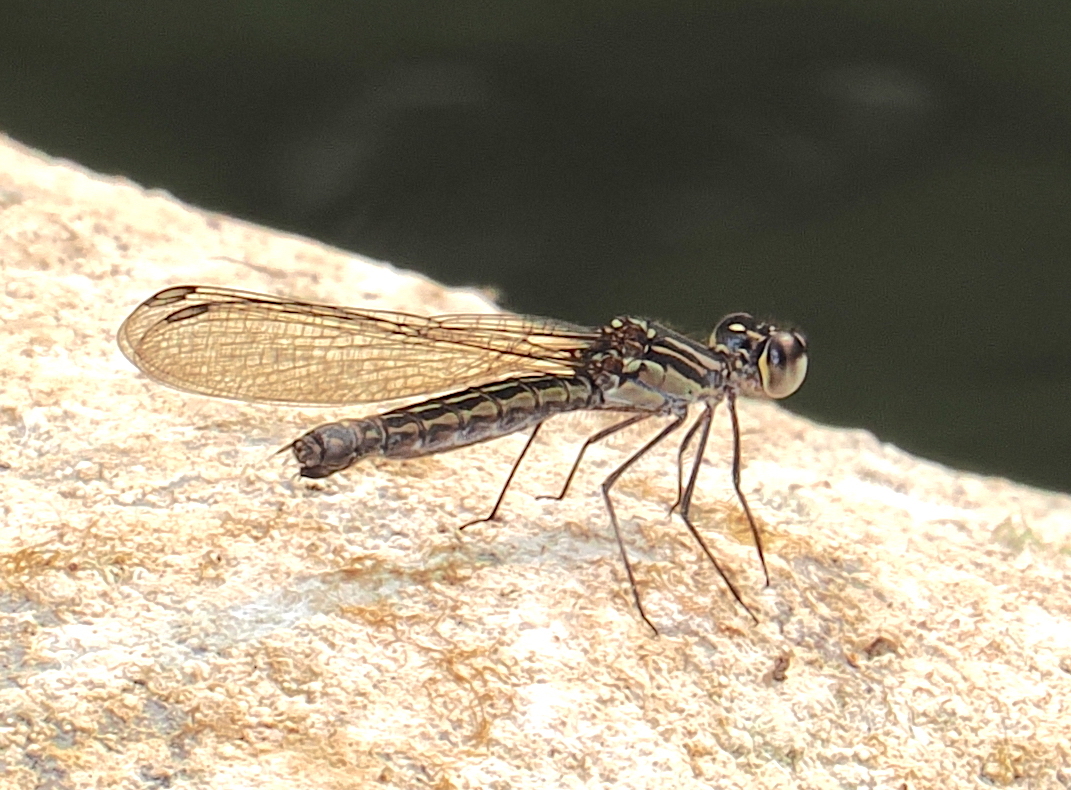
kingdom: Animalia
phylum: Arthropoda
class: Insecta
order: Odonata
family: Chlorocyphidae
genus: Libellago
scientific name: Libellago lineata
